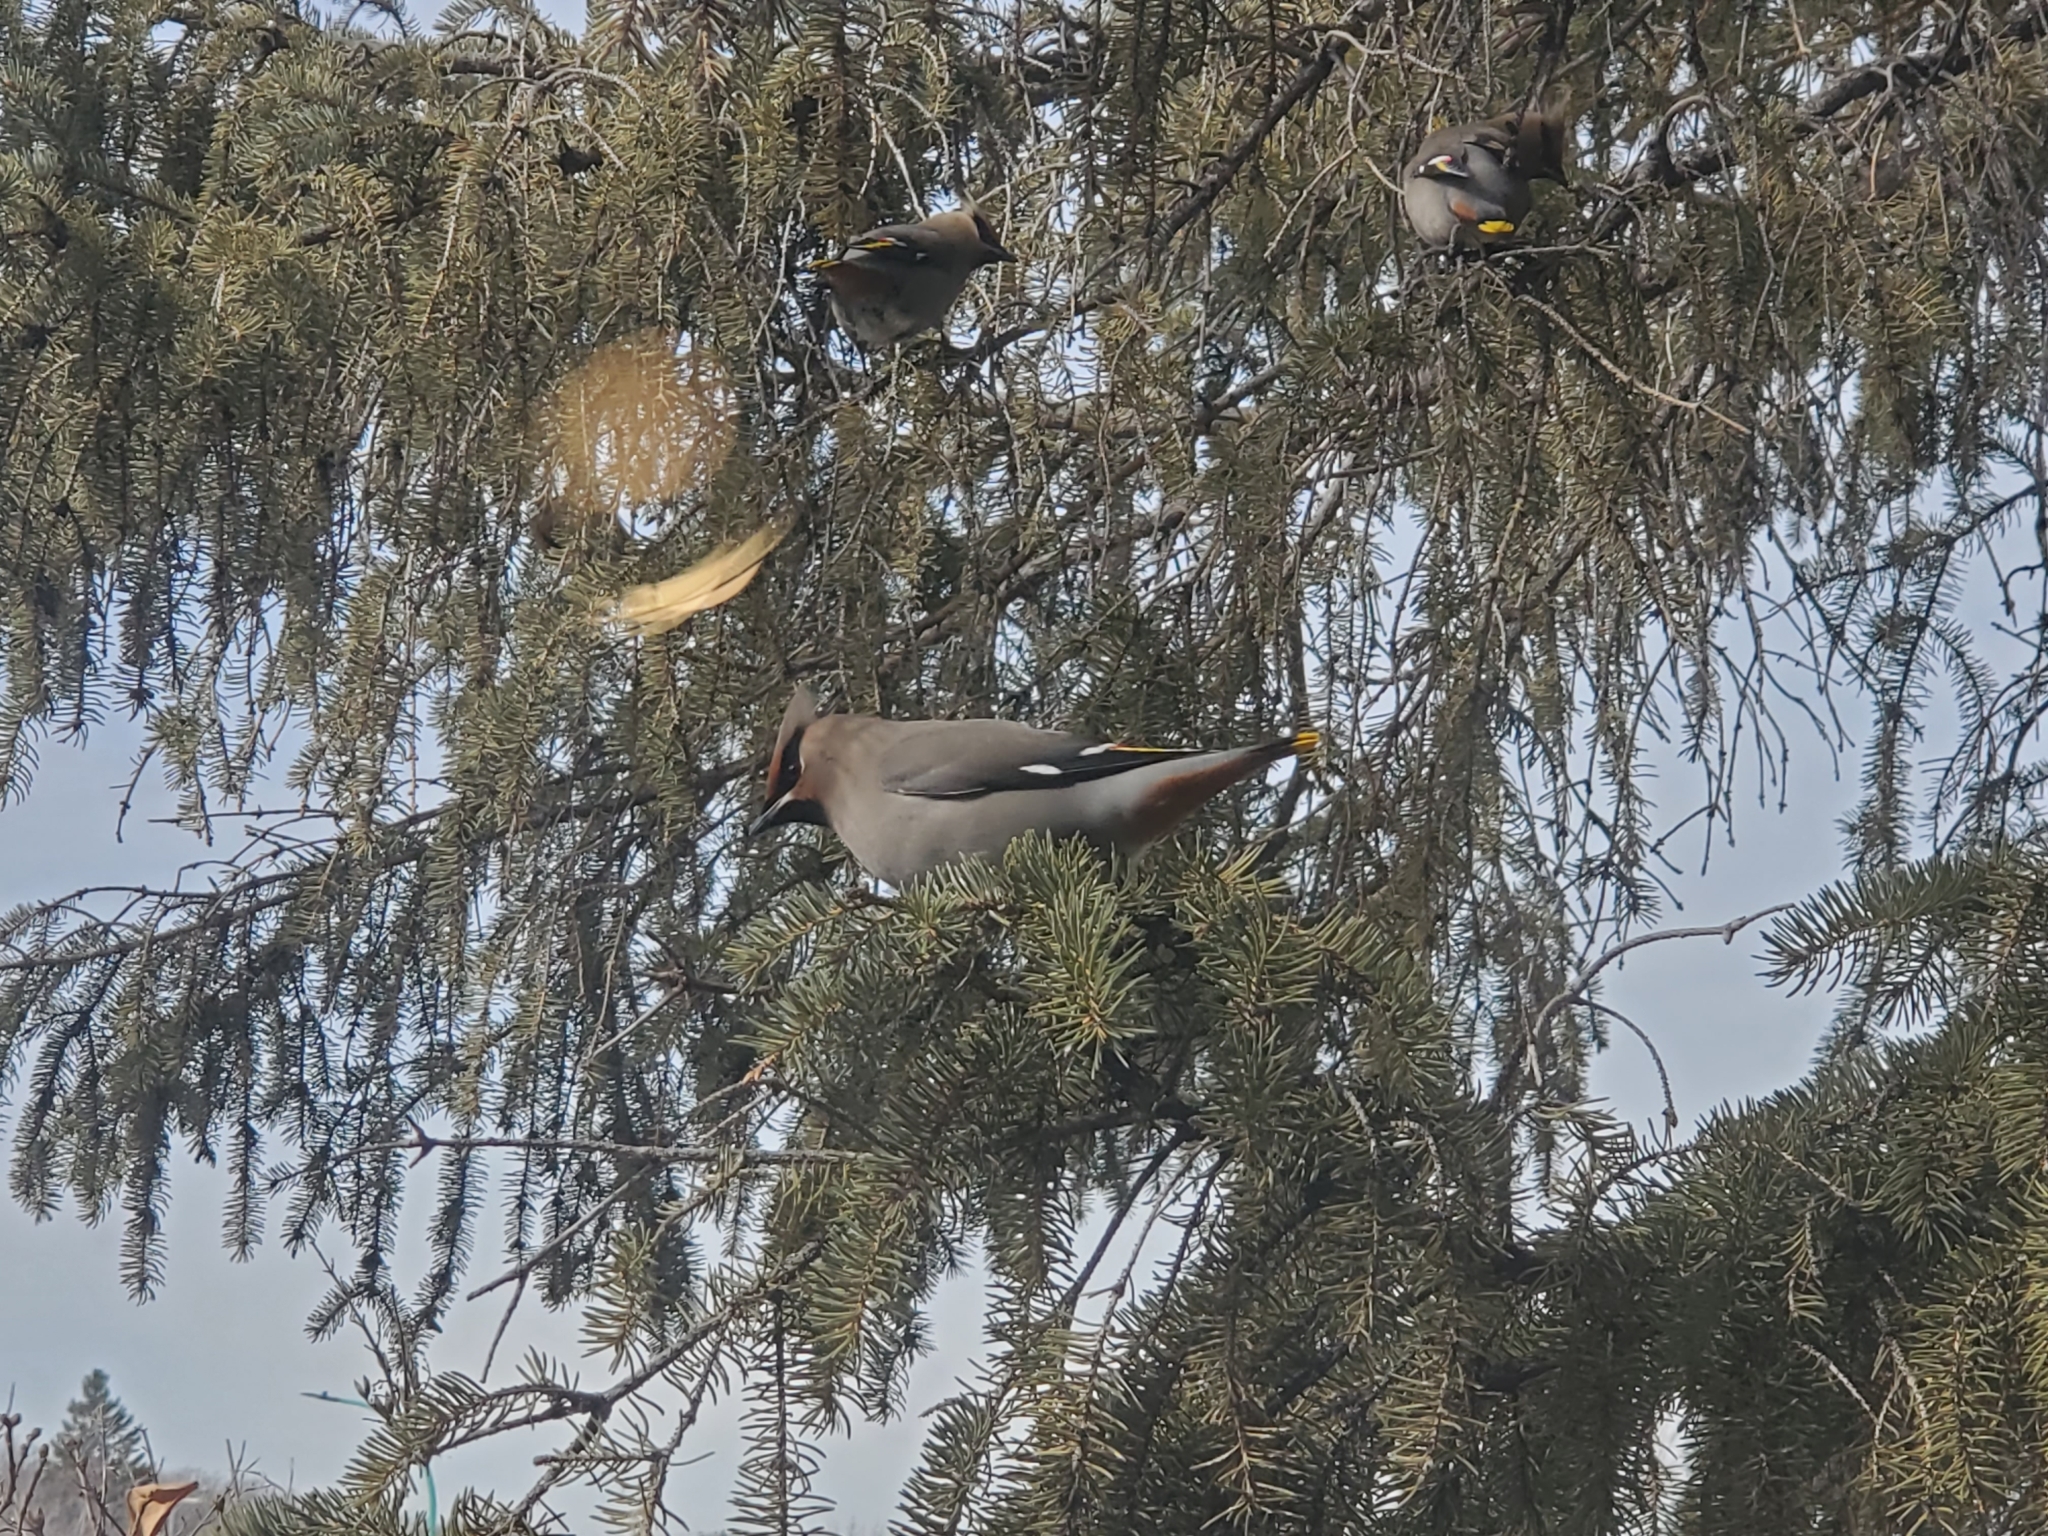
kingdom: Animalia
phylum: Chordata
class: Aves
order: Passeriformes
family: Bombycillidae
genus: Bombycilla
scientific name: Bombycilla garrulus
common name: Bohemian waxwing
